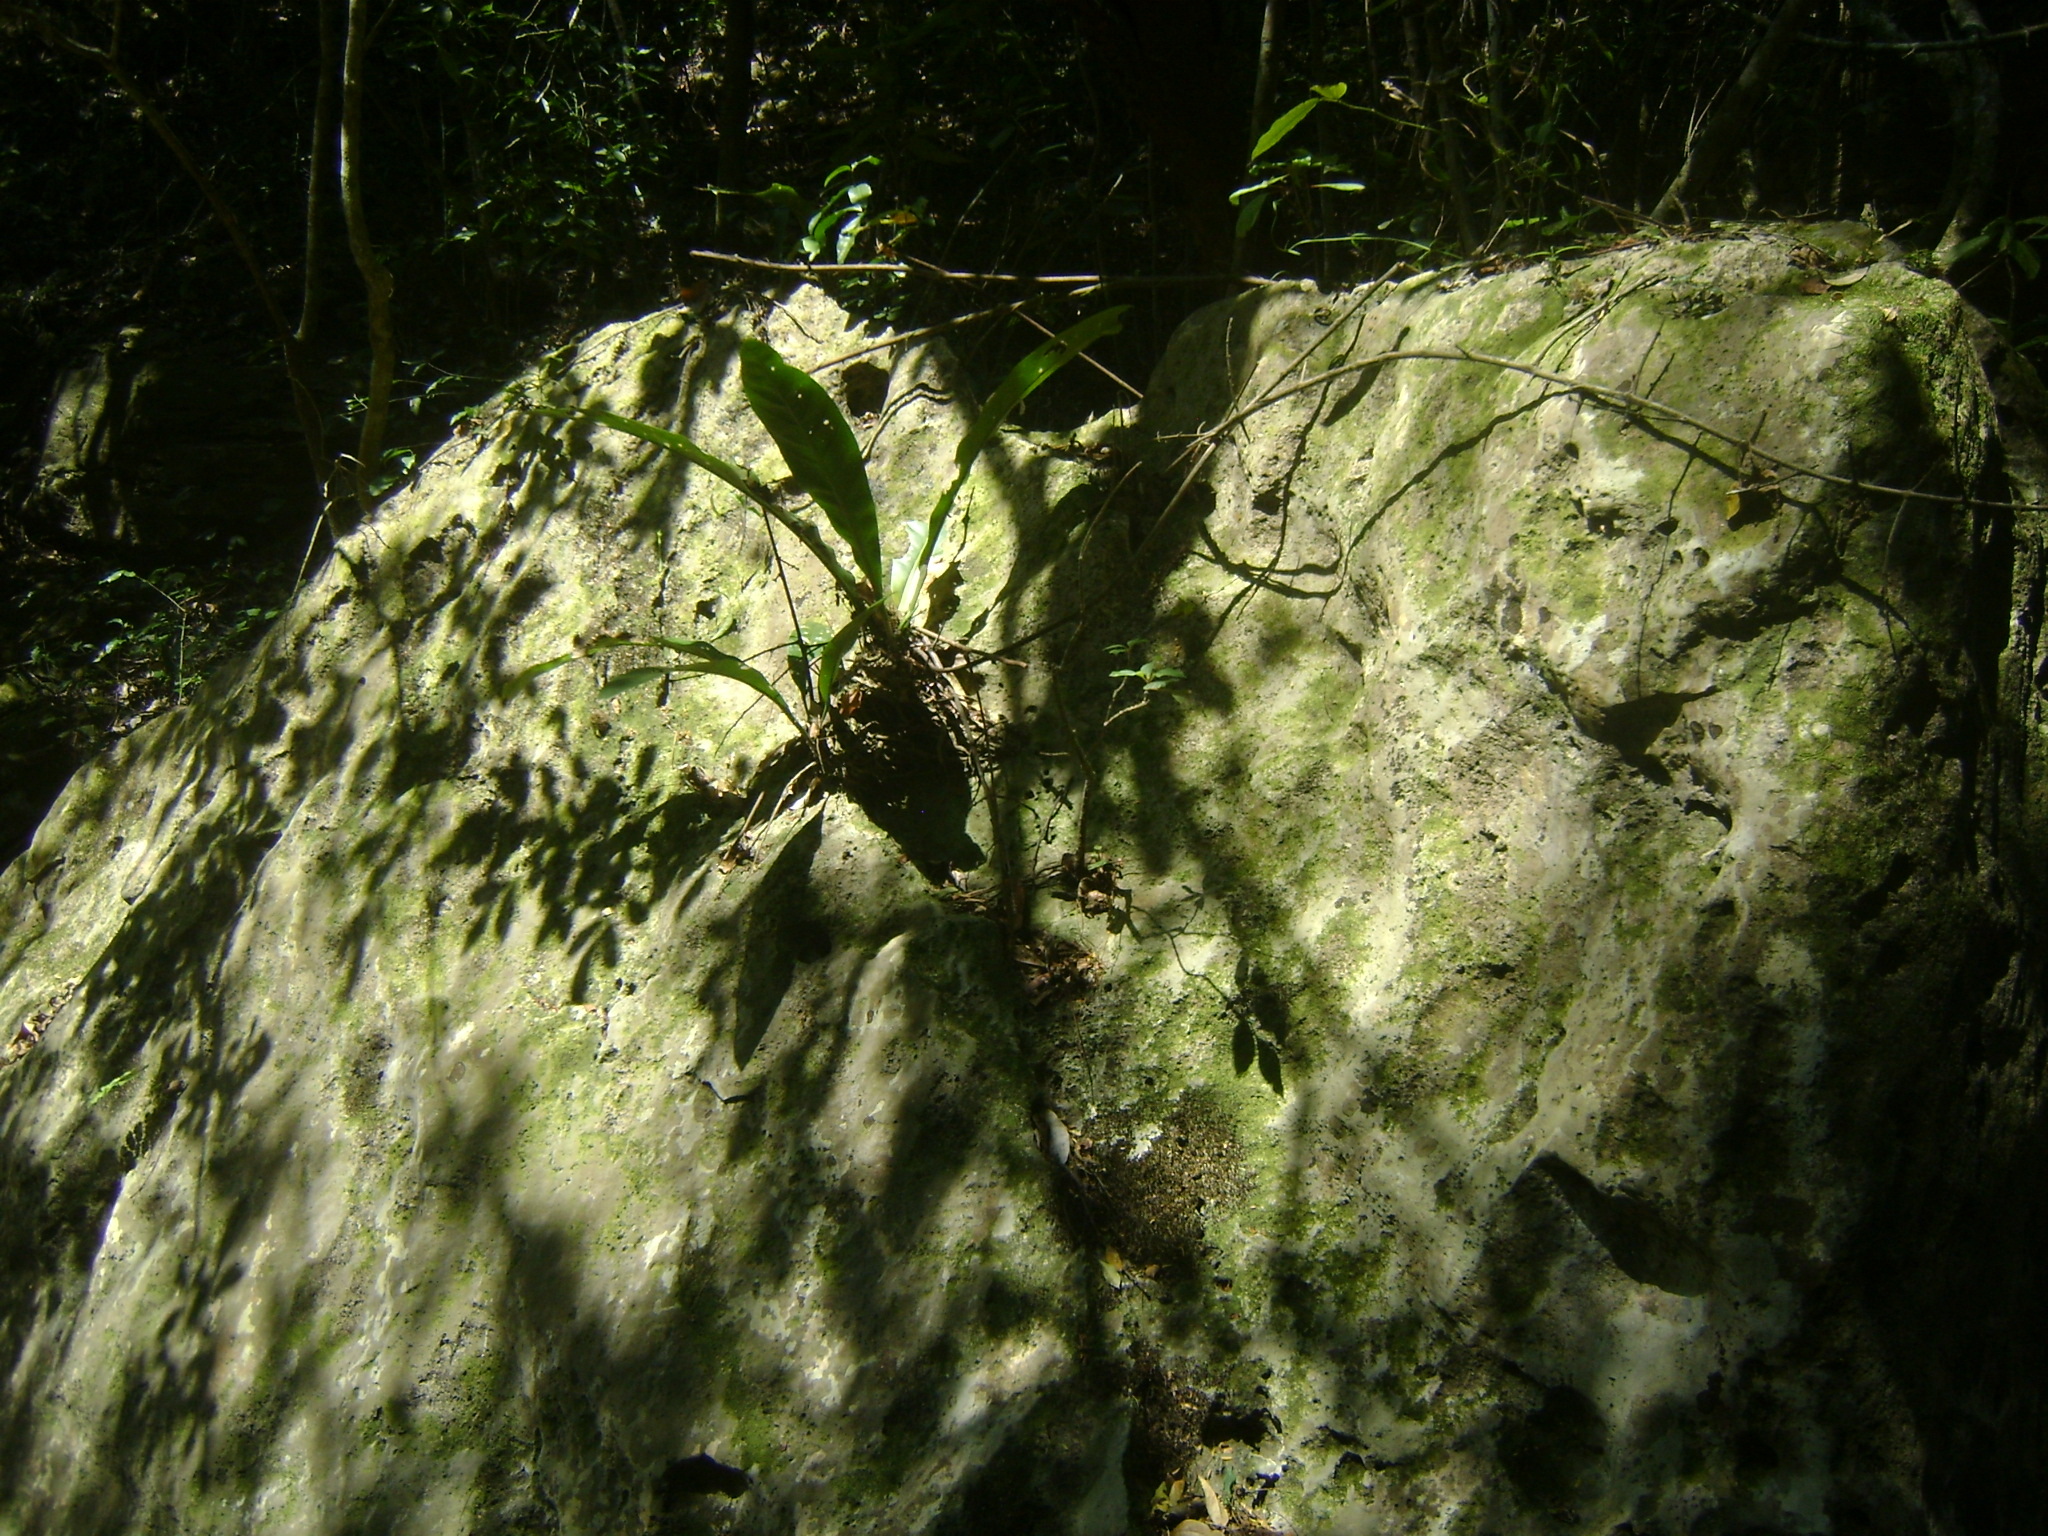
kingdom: Plantae
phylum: Tracheophyta
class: Liliopsida
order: Alismatales
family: Araceae
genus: Anthurium
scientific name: Anthurium schlechtendalii
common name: Laceleaf
